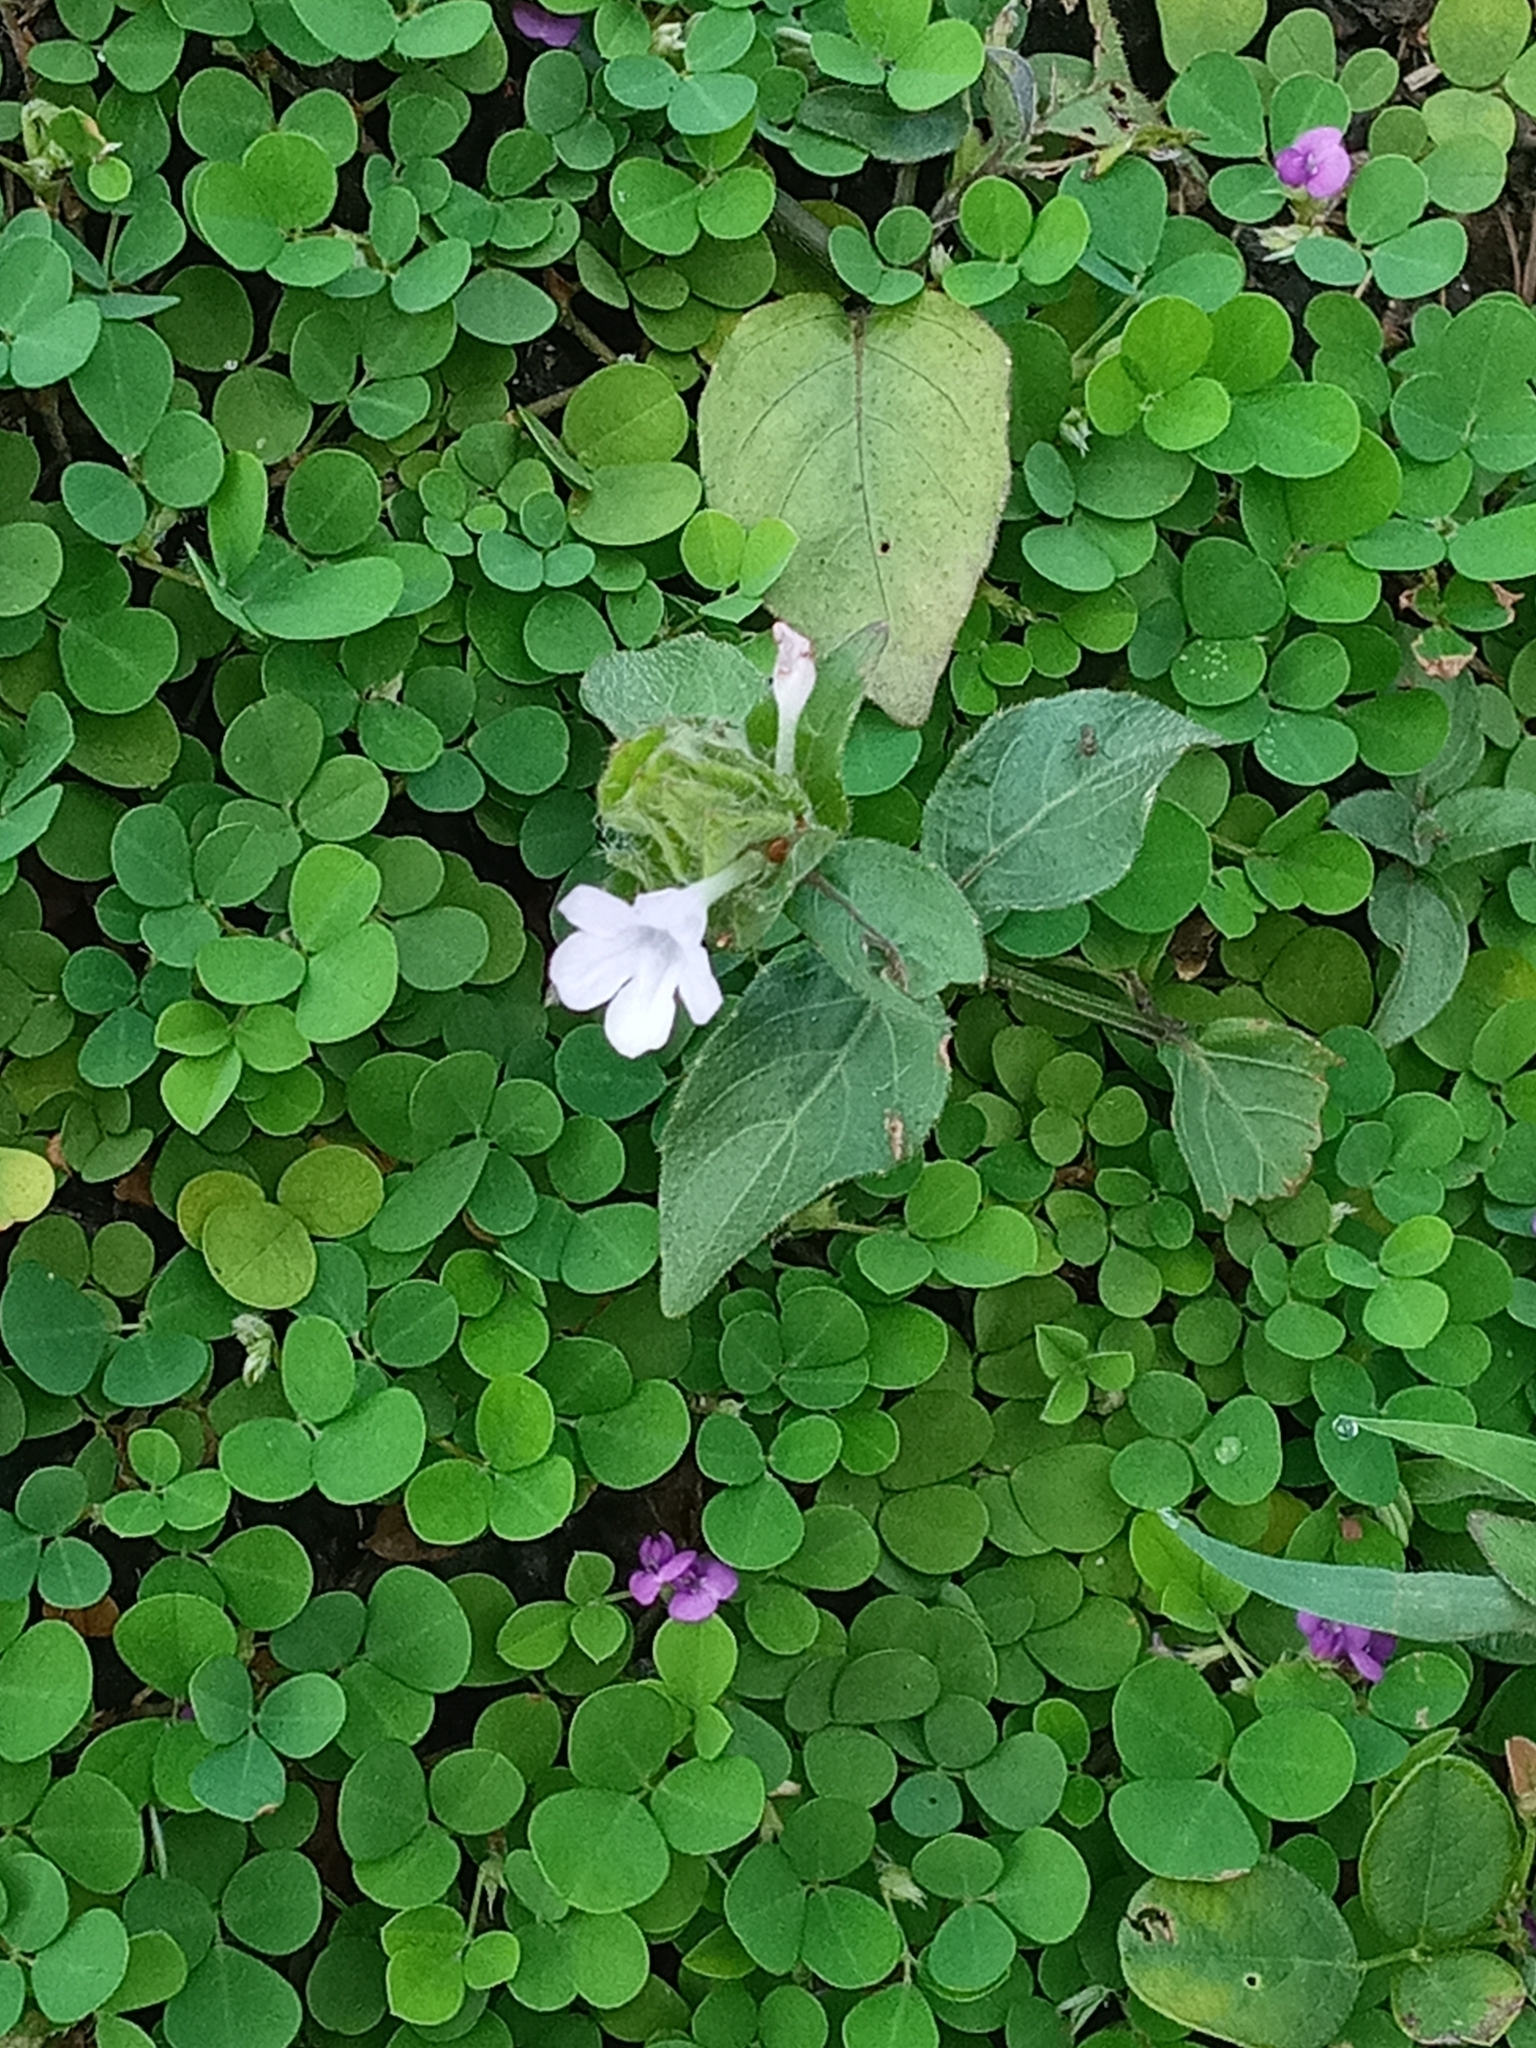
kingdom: Plantae
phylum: Tracheophyta
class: Magnoliopsida
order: Lamiales
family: Acanthaceae
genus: Strobilanthes
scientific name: Strobilanthes reptans
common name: Acanthaceae
